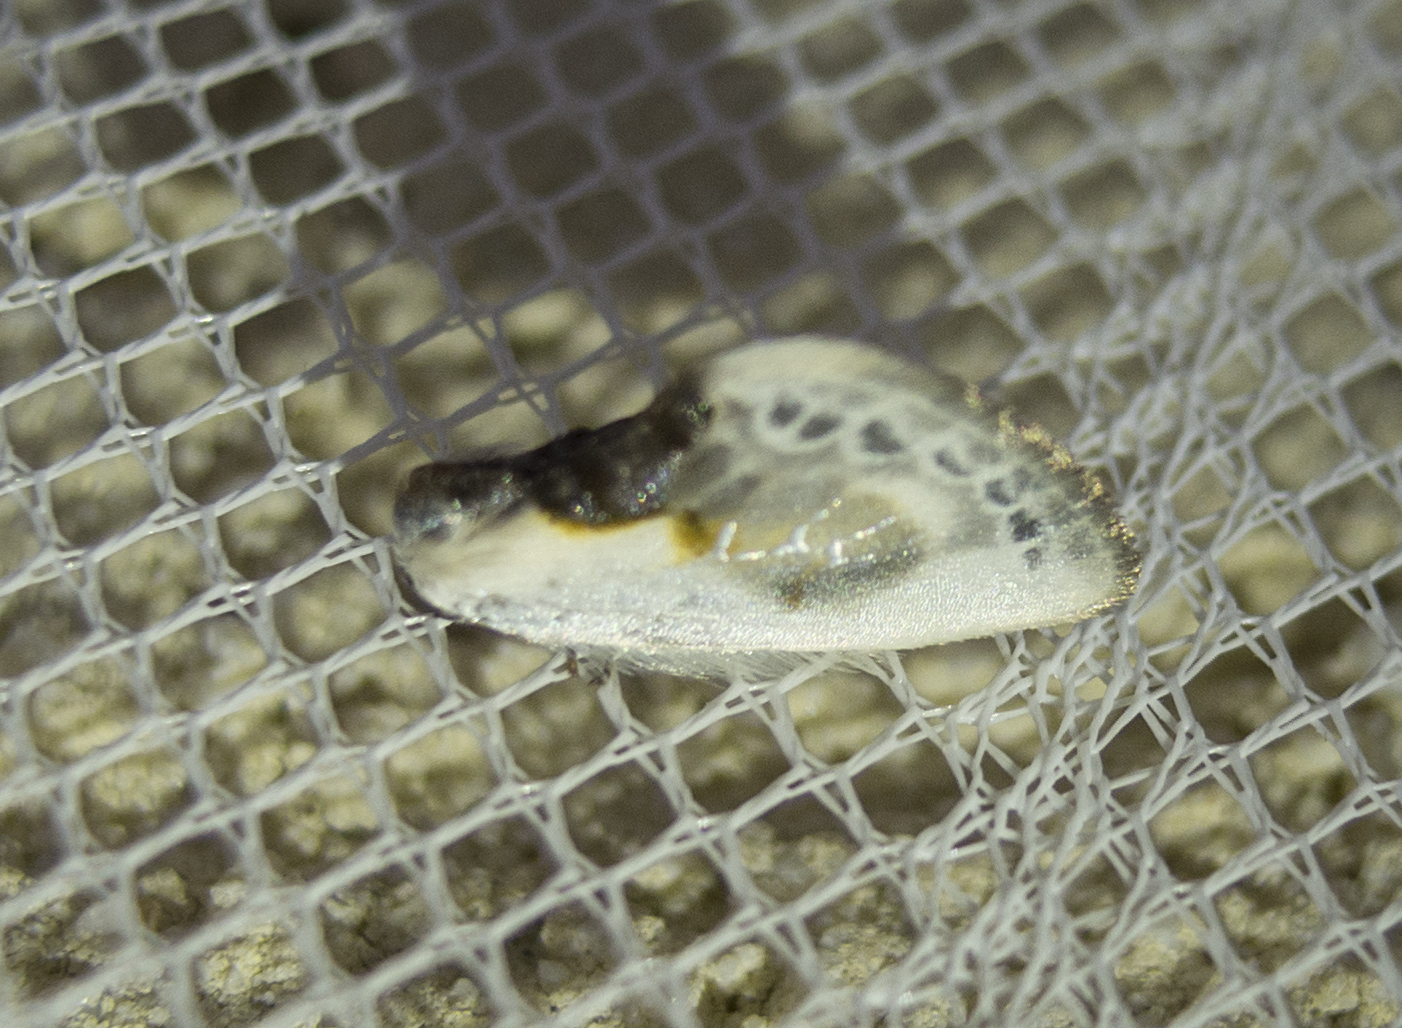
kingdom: Animalia
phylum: Arthropoda
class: Insecta
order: Lepidoptera
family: Drepanidae
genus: Cilix
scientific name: Cilix glaucata
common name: Chinese character
